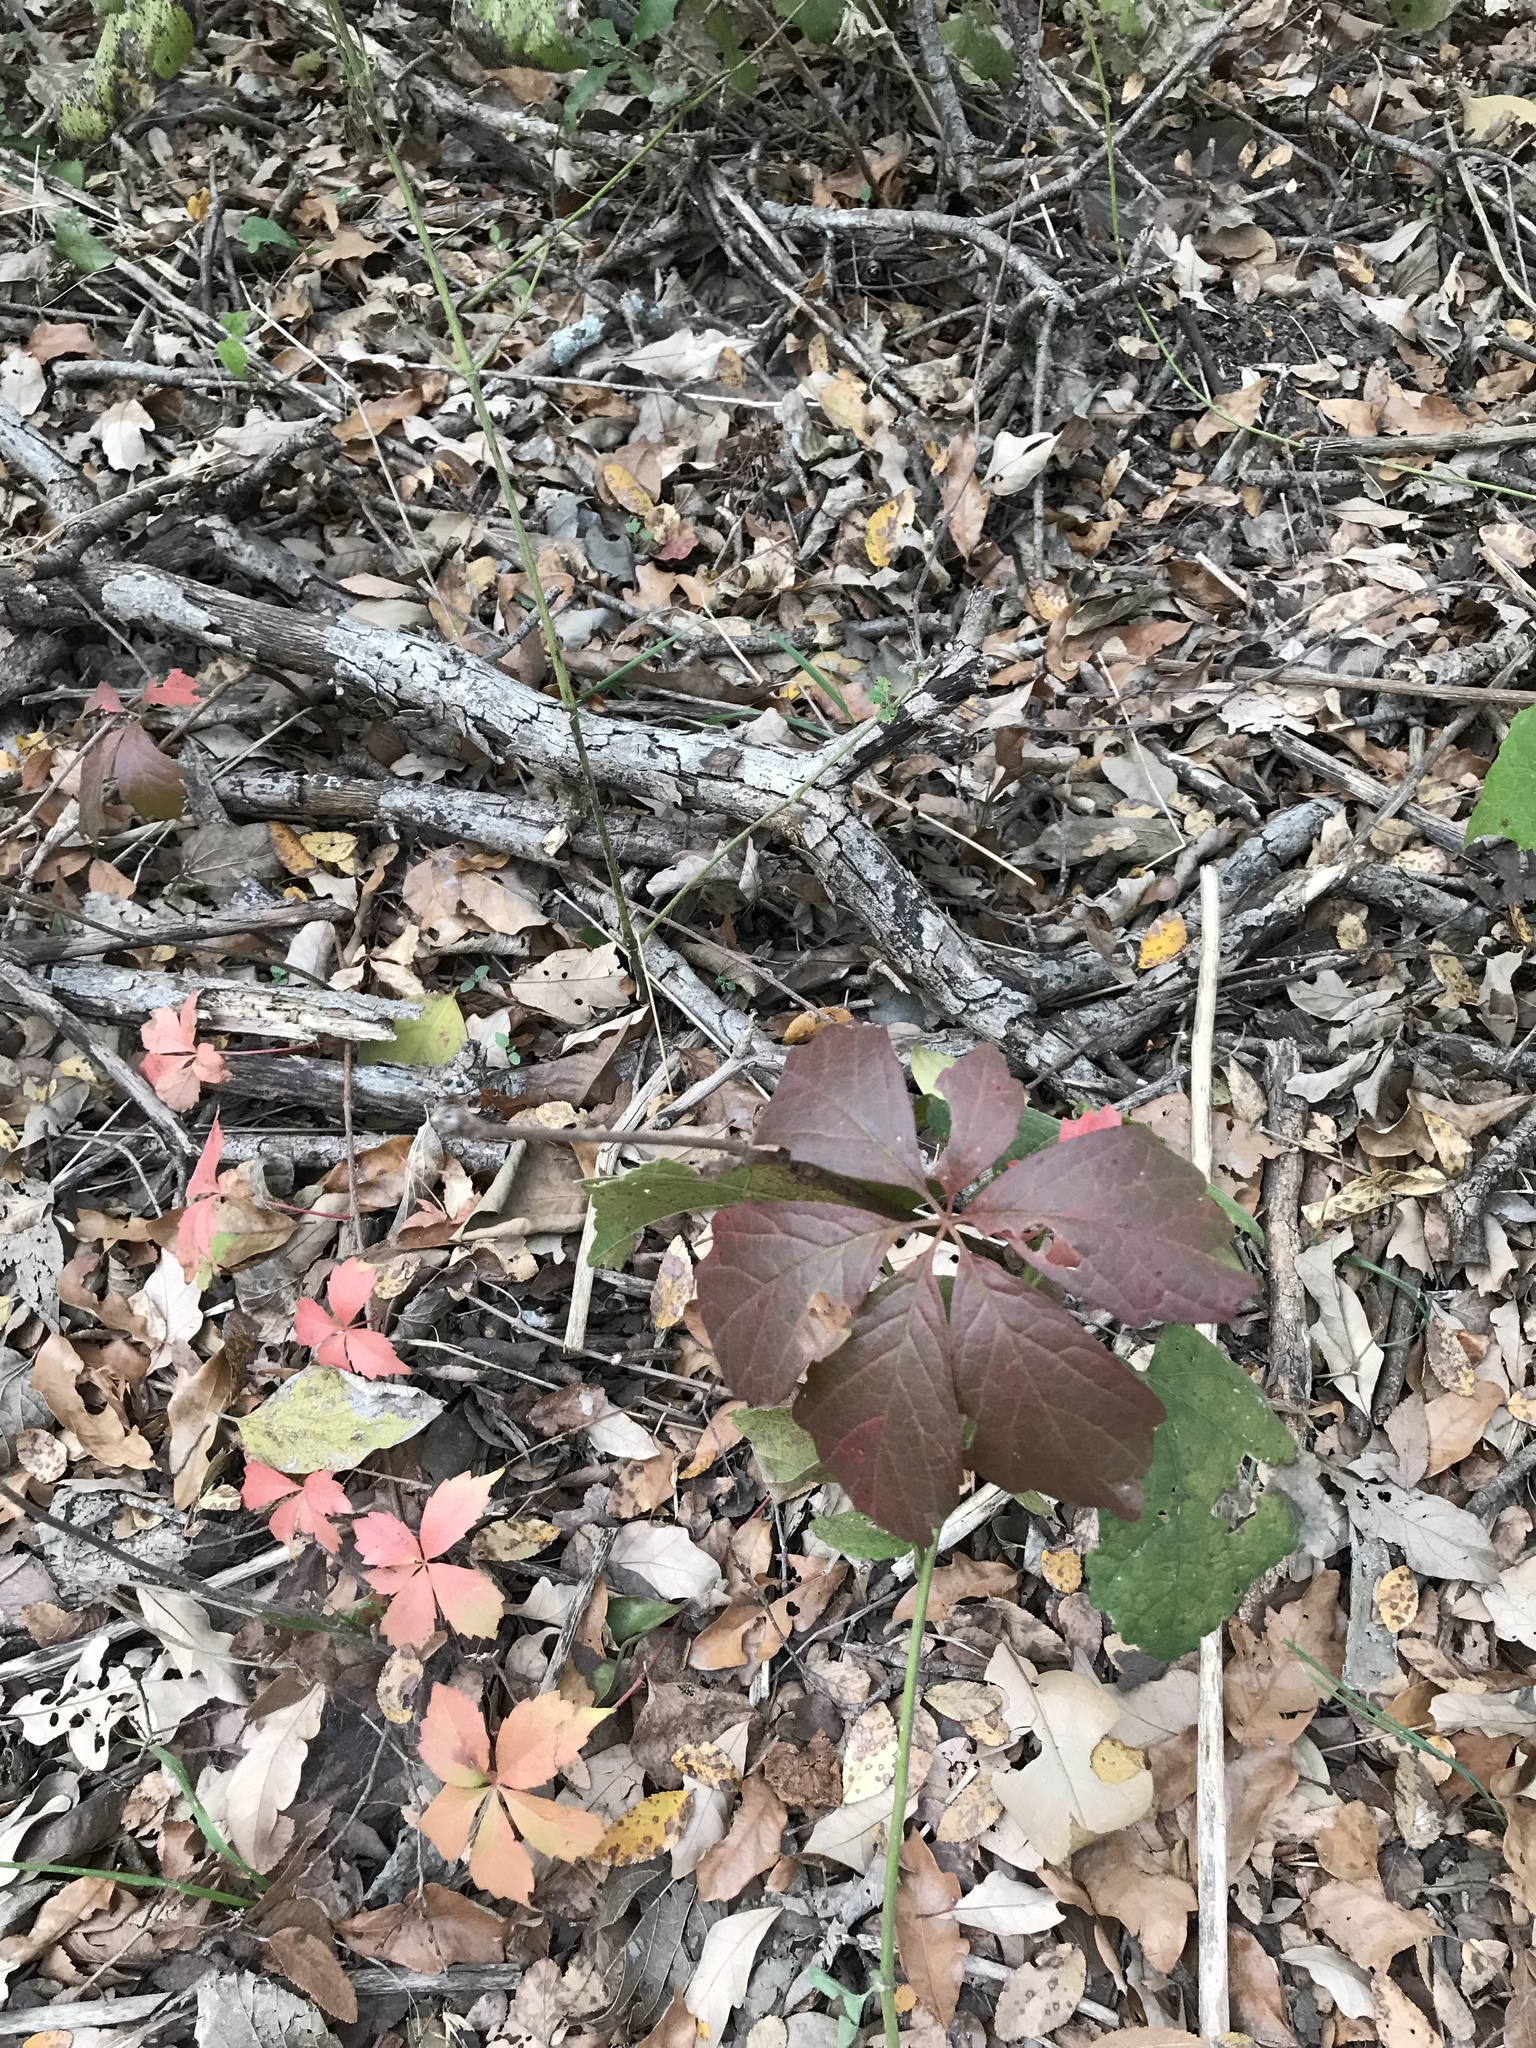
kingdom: Plantae
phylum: Tracheophyta
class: Magnoliopsida
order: Vitales
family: Vitaceae
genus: Parthenocissus
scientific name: Parthenocissus
